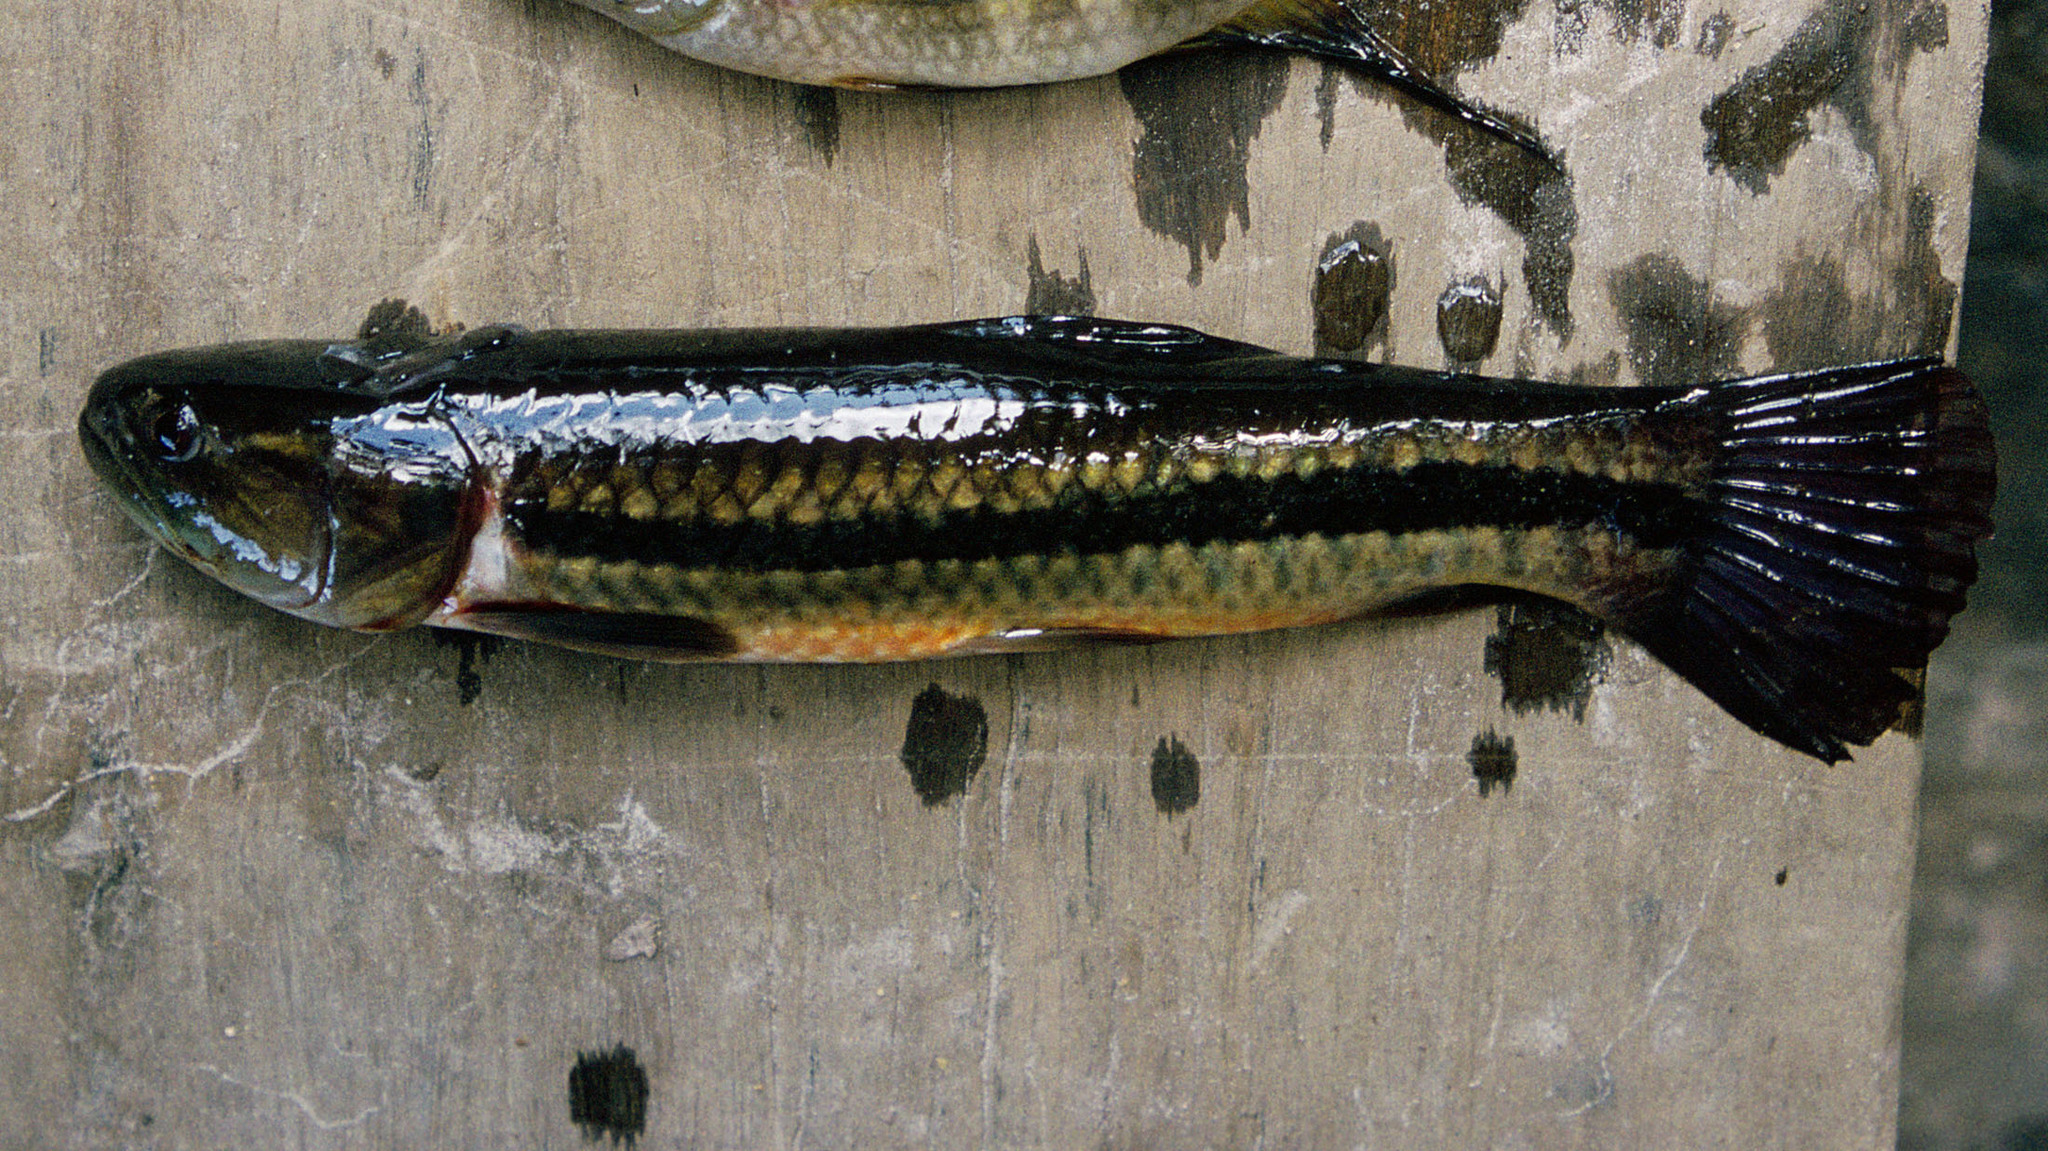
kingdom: Animalia
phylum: Chordata
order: Characiformes
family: Erythrinidae
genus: Hoplerythrinus
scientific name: Hoplerythrinus unitaeniatus
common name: Aimara
